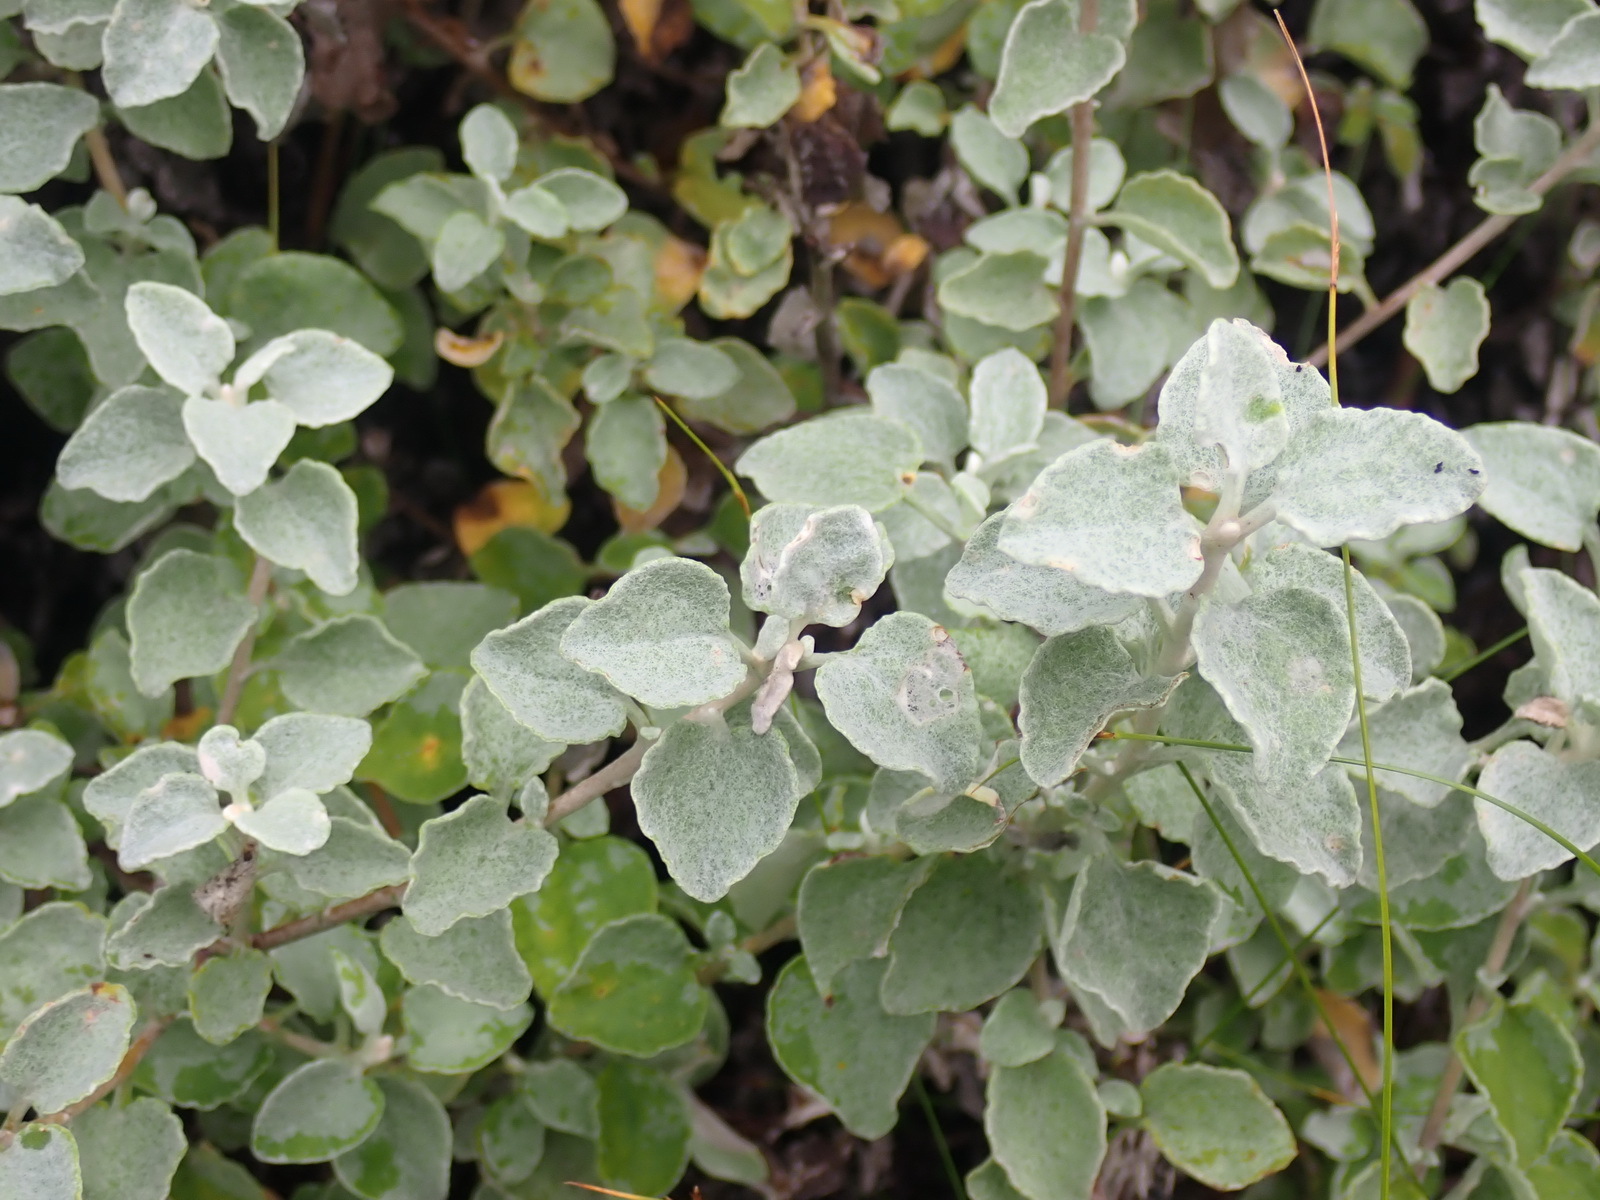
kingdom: Plantae
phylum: Tracheophyta
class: Magnoliopsida
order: Asterales
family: Asteraceae
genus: Helichrysum
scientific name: Helichrysum petiolare
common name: Licorice-plant
